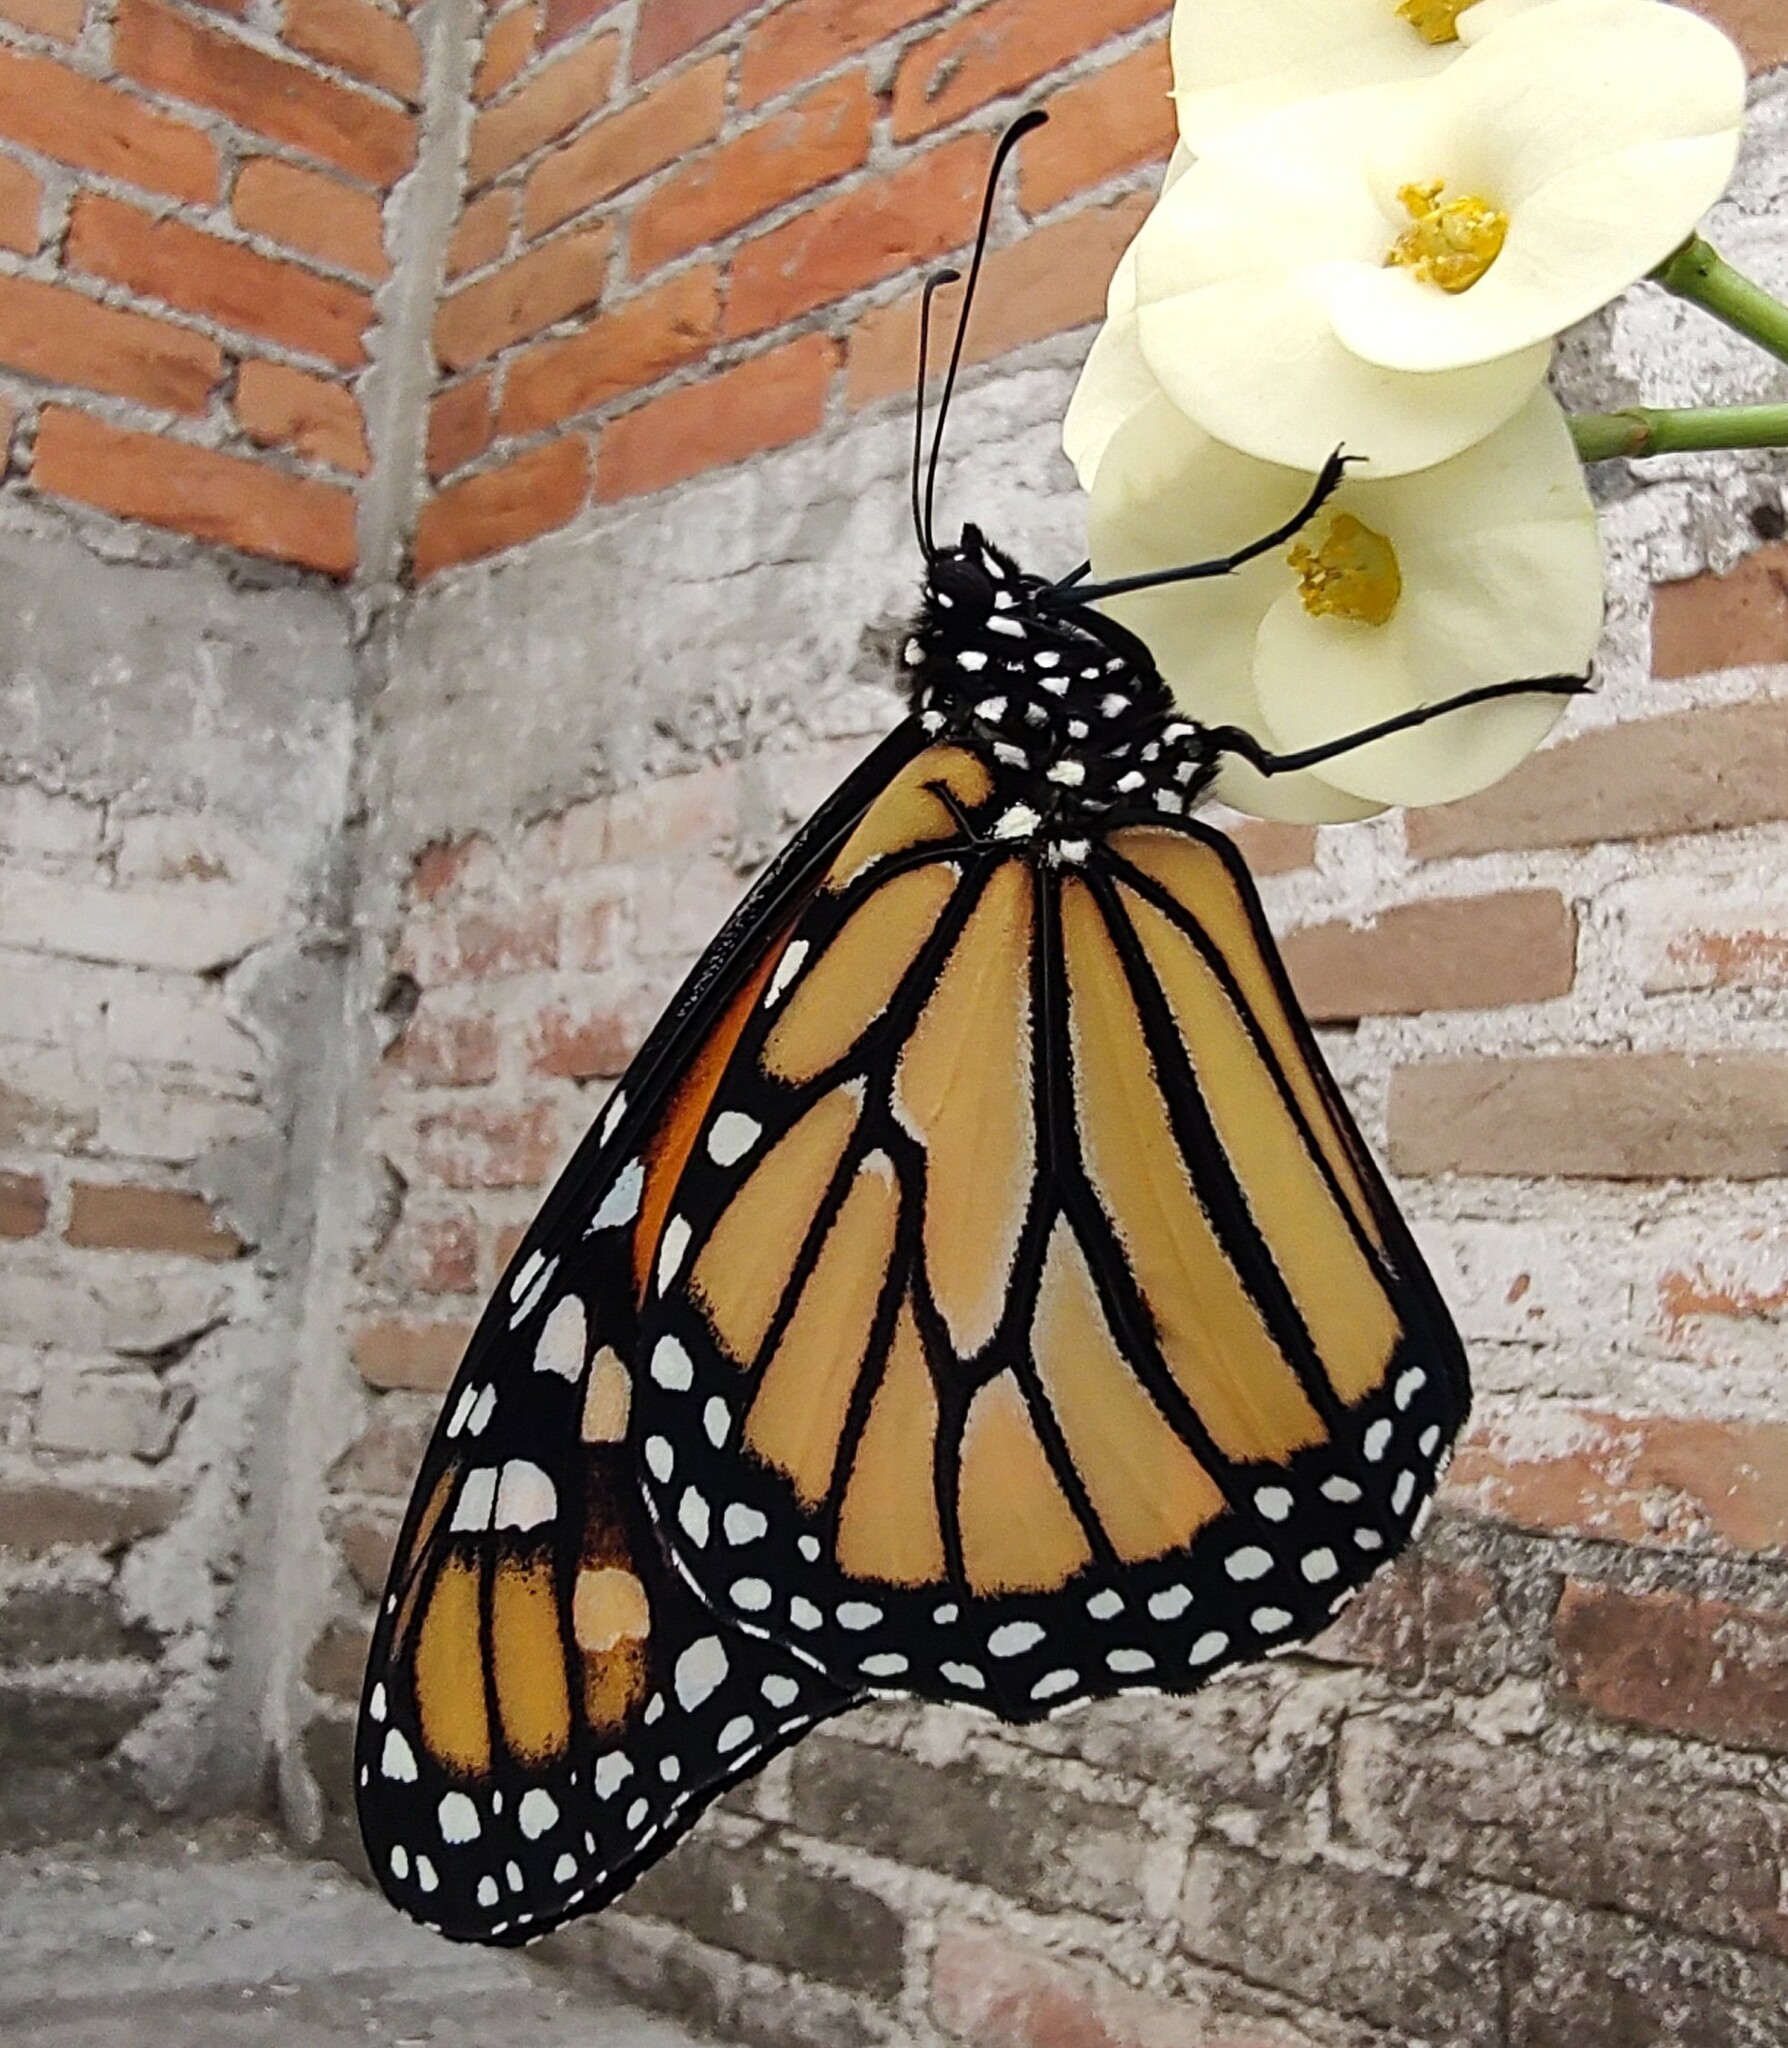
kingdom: Animalia
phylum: Arthropoda
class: Insecta
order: Lepidoptera
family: Nymphalidae
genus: Danaus
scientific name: Danaus plexippus
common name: Monarch
